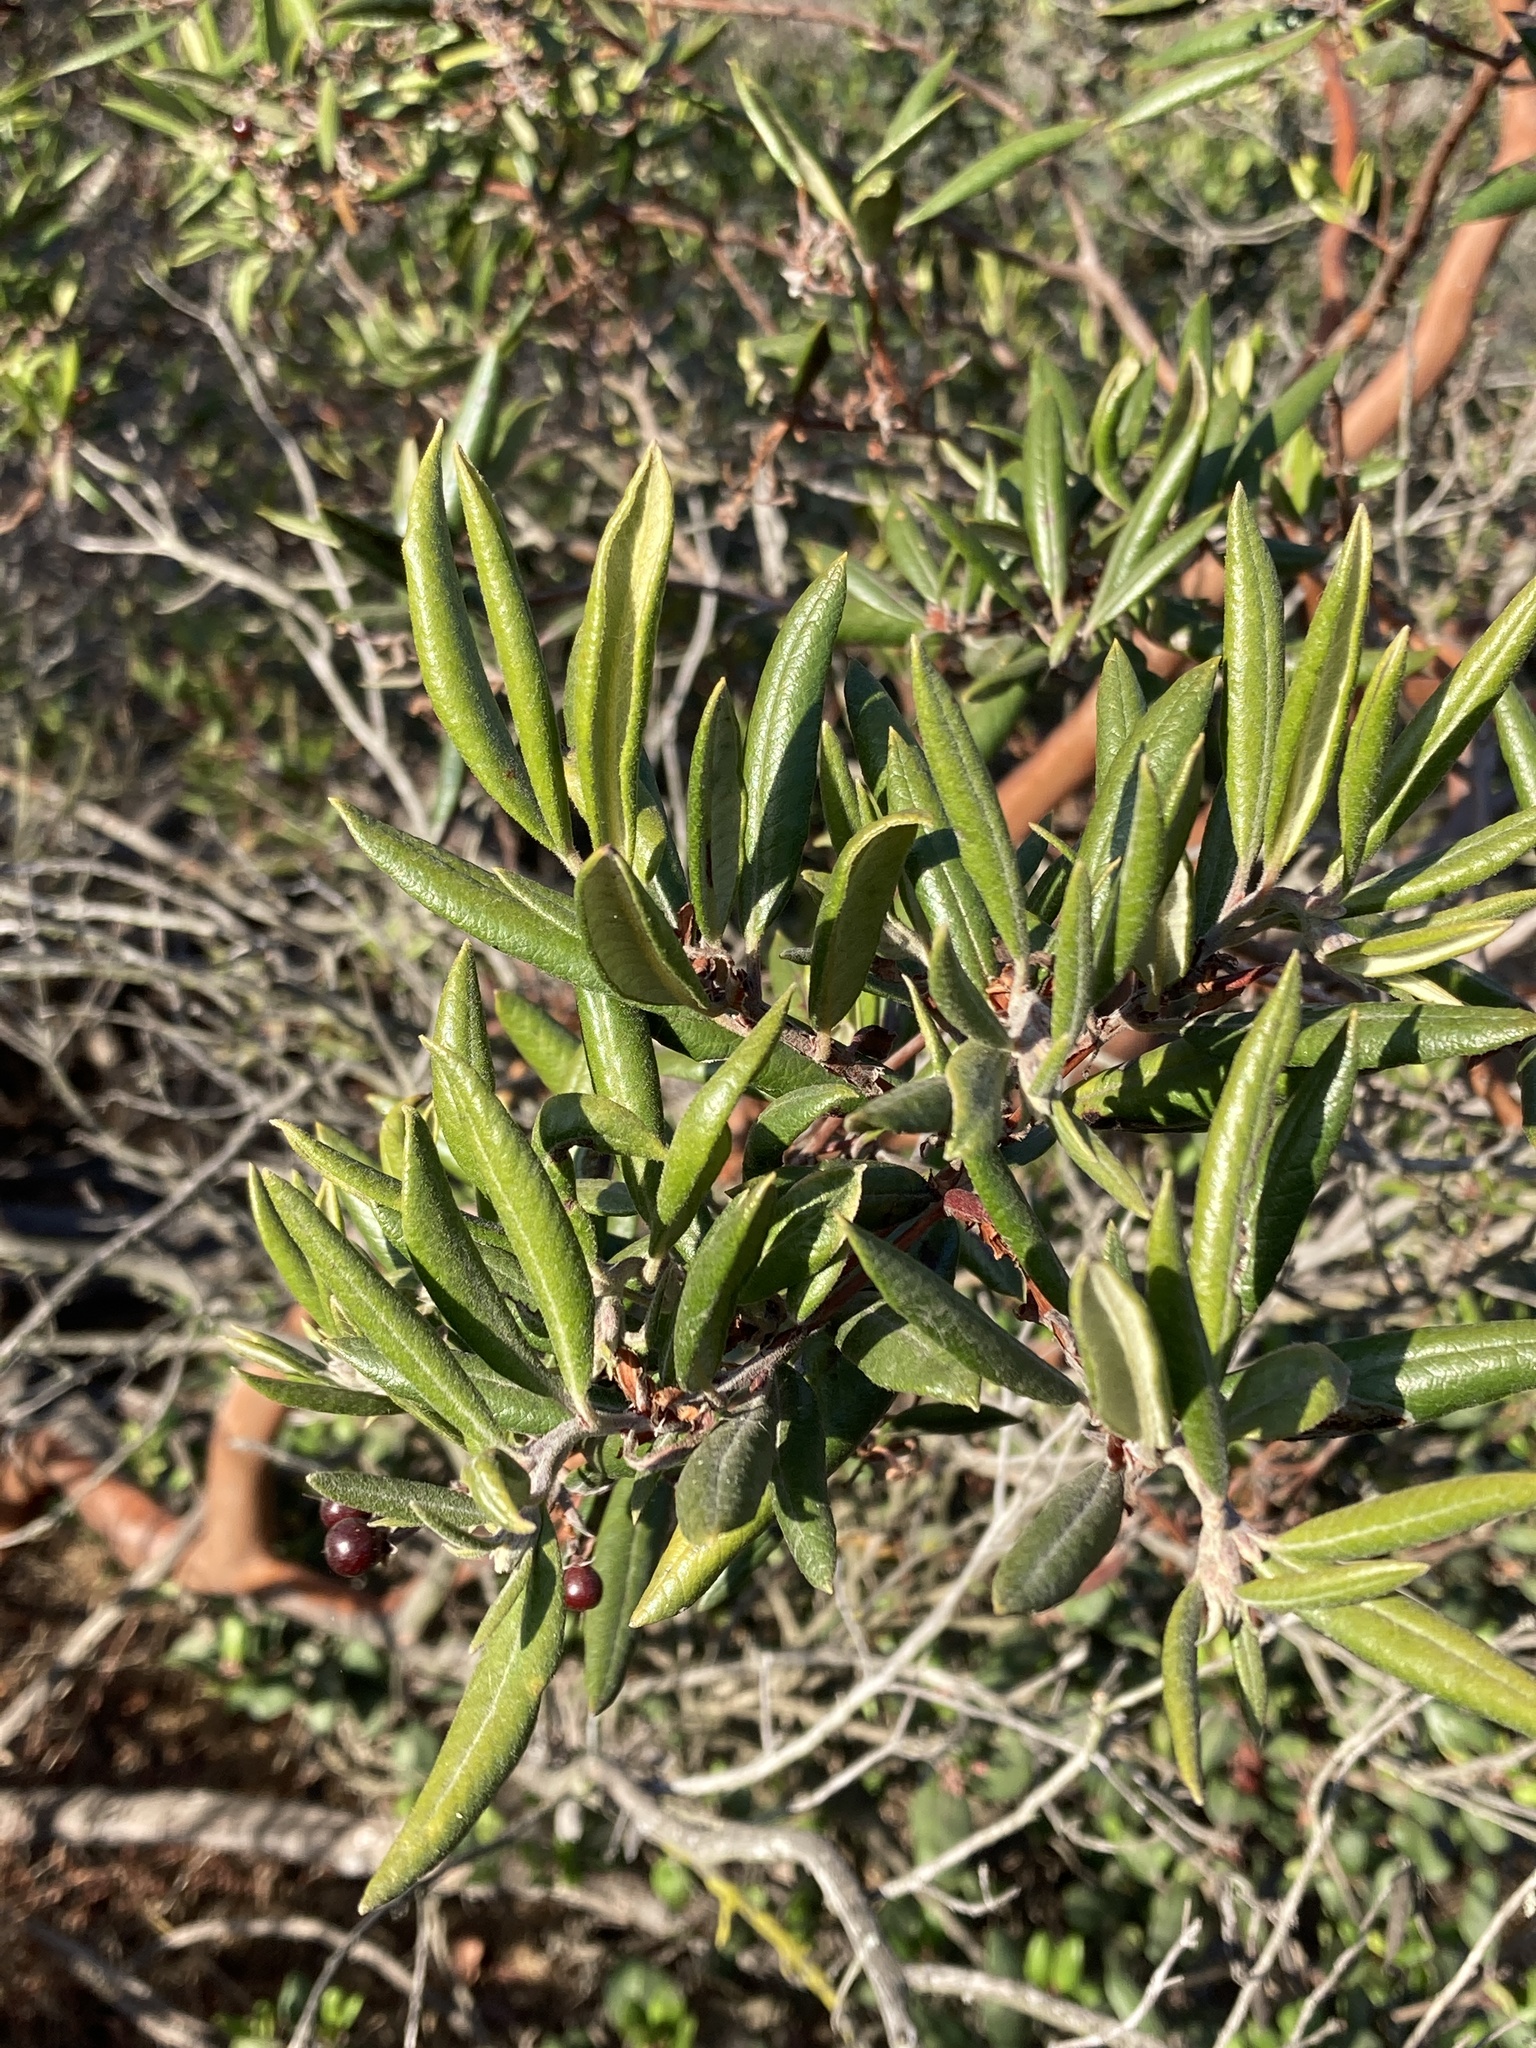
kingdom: Plantae
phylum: Tracheophyta
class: Magnoliopsida
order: Ericales
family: Ericaceae
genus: Arctostaphylos
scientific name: Arctostaphylos bicolor
